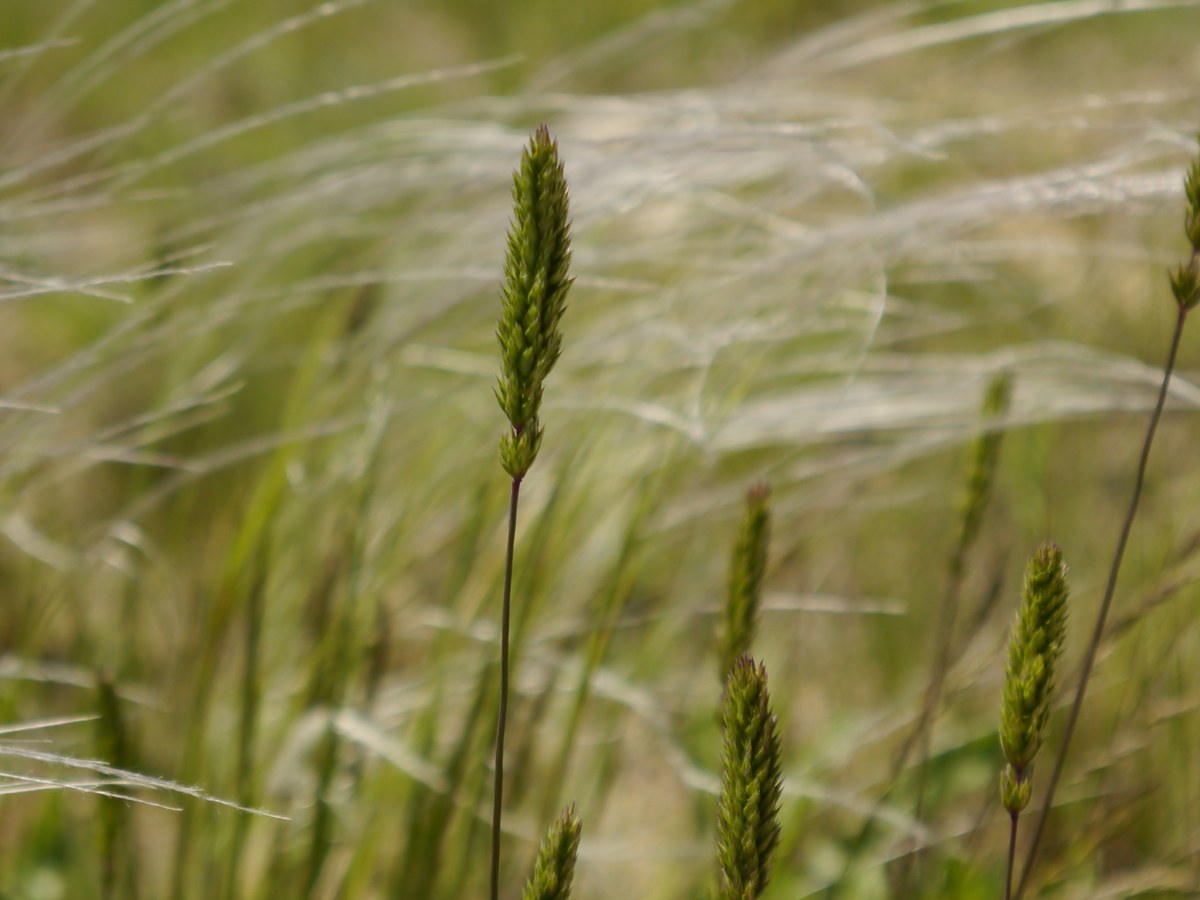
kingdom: Plantae
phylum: Tracheophyta
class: Liliopsida
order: Poales
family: Poaceae
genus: Koeleria
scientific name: Koeleria brevis
